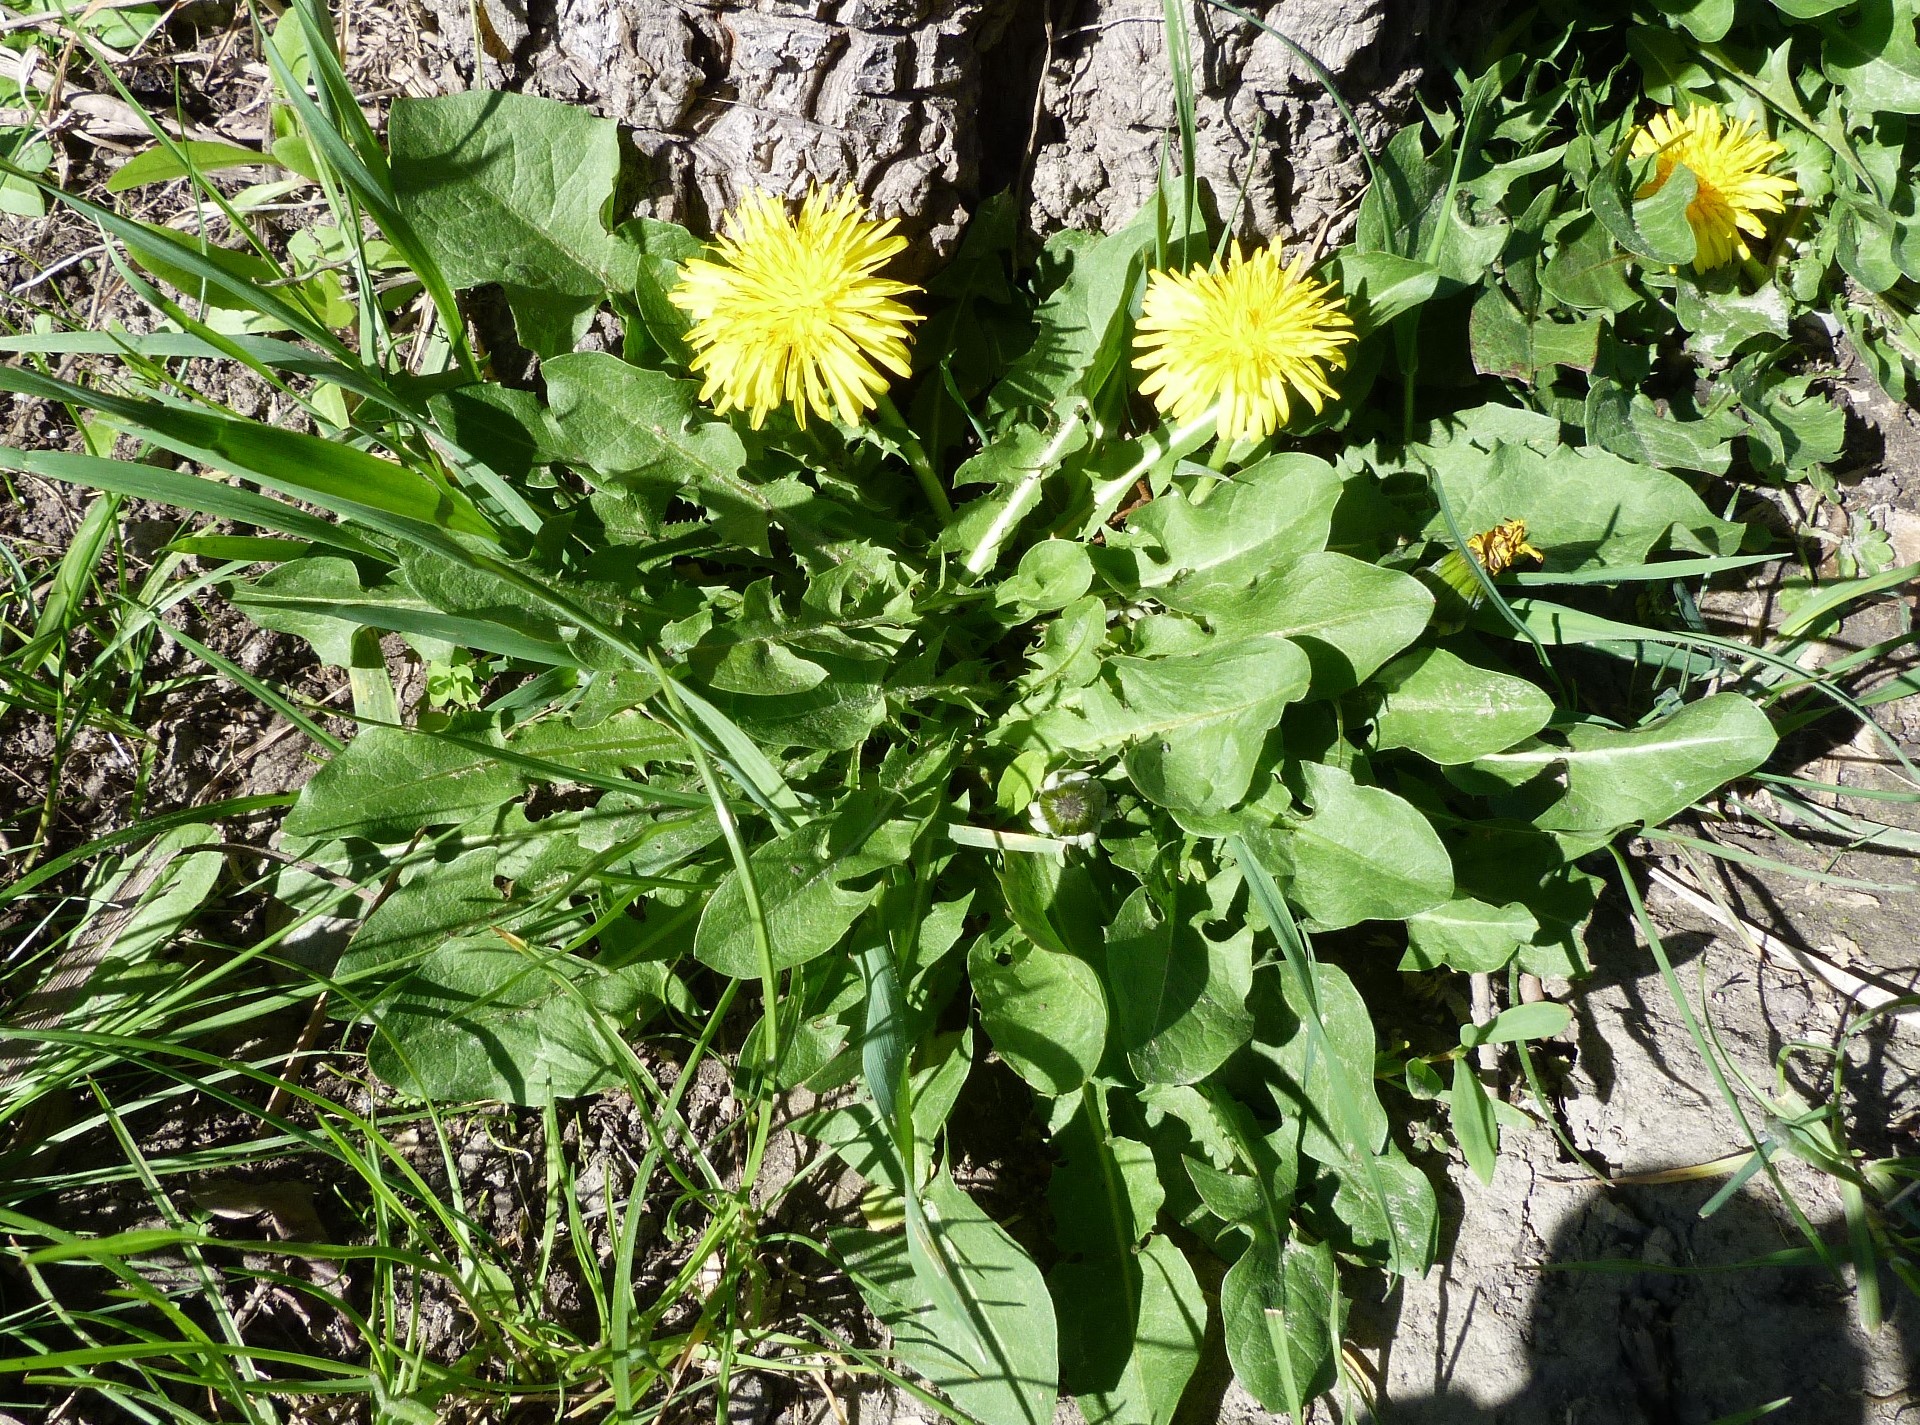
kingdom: Plantae
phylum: Tracheophyta
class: Magnoliopsida
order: Asterales
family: Asteraceae
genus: Taraxacum
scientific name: Taraxacum officinale
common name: Common dandelion
